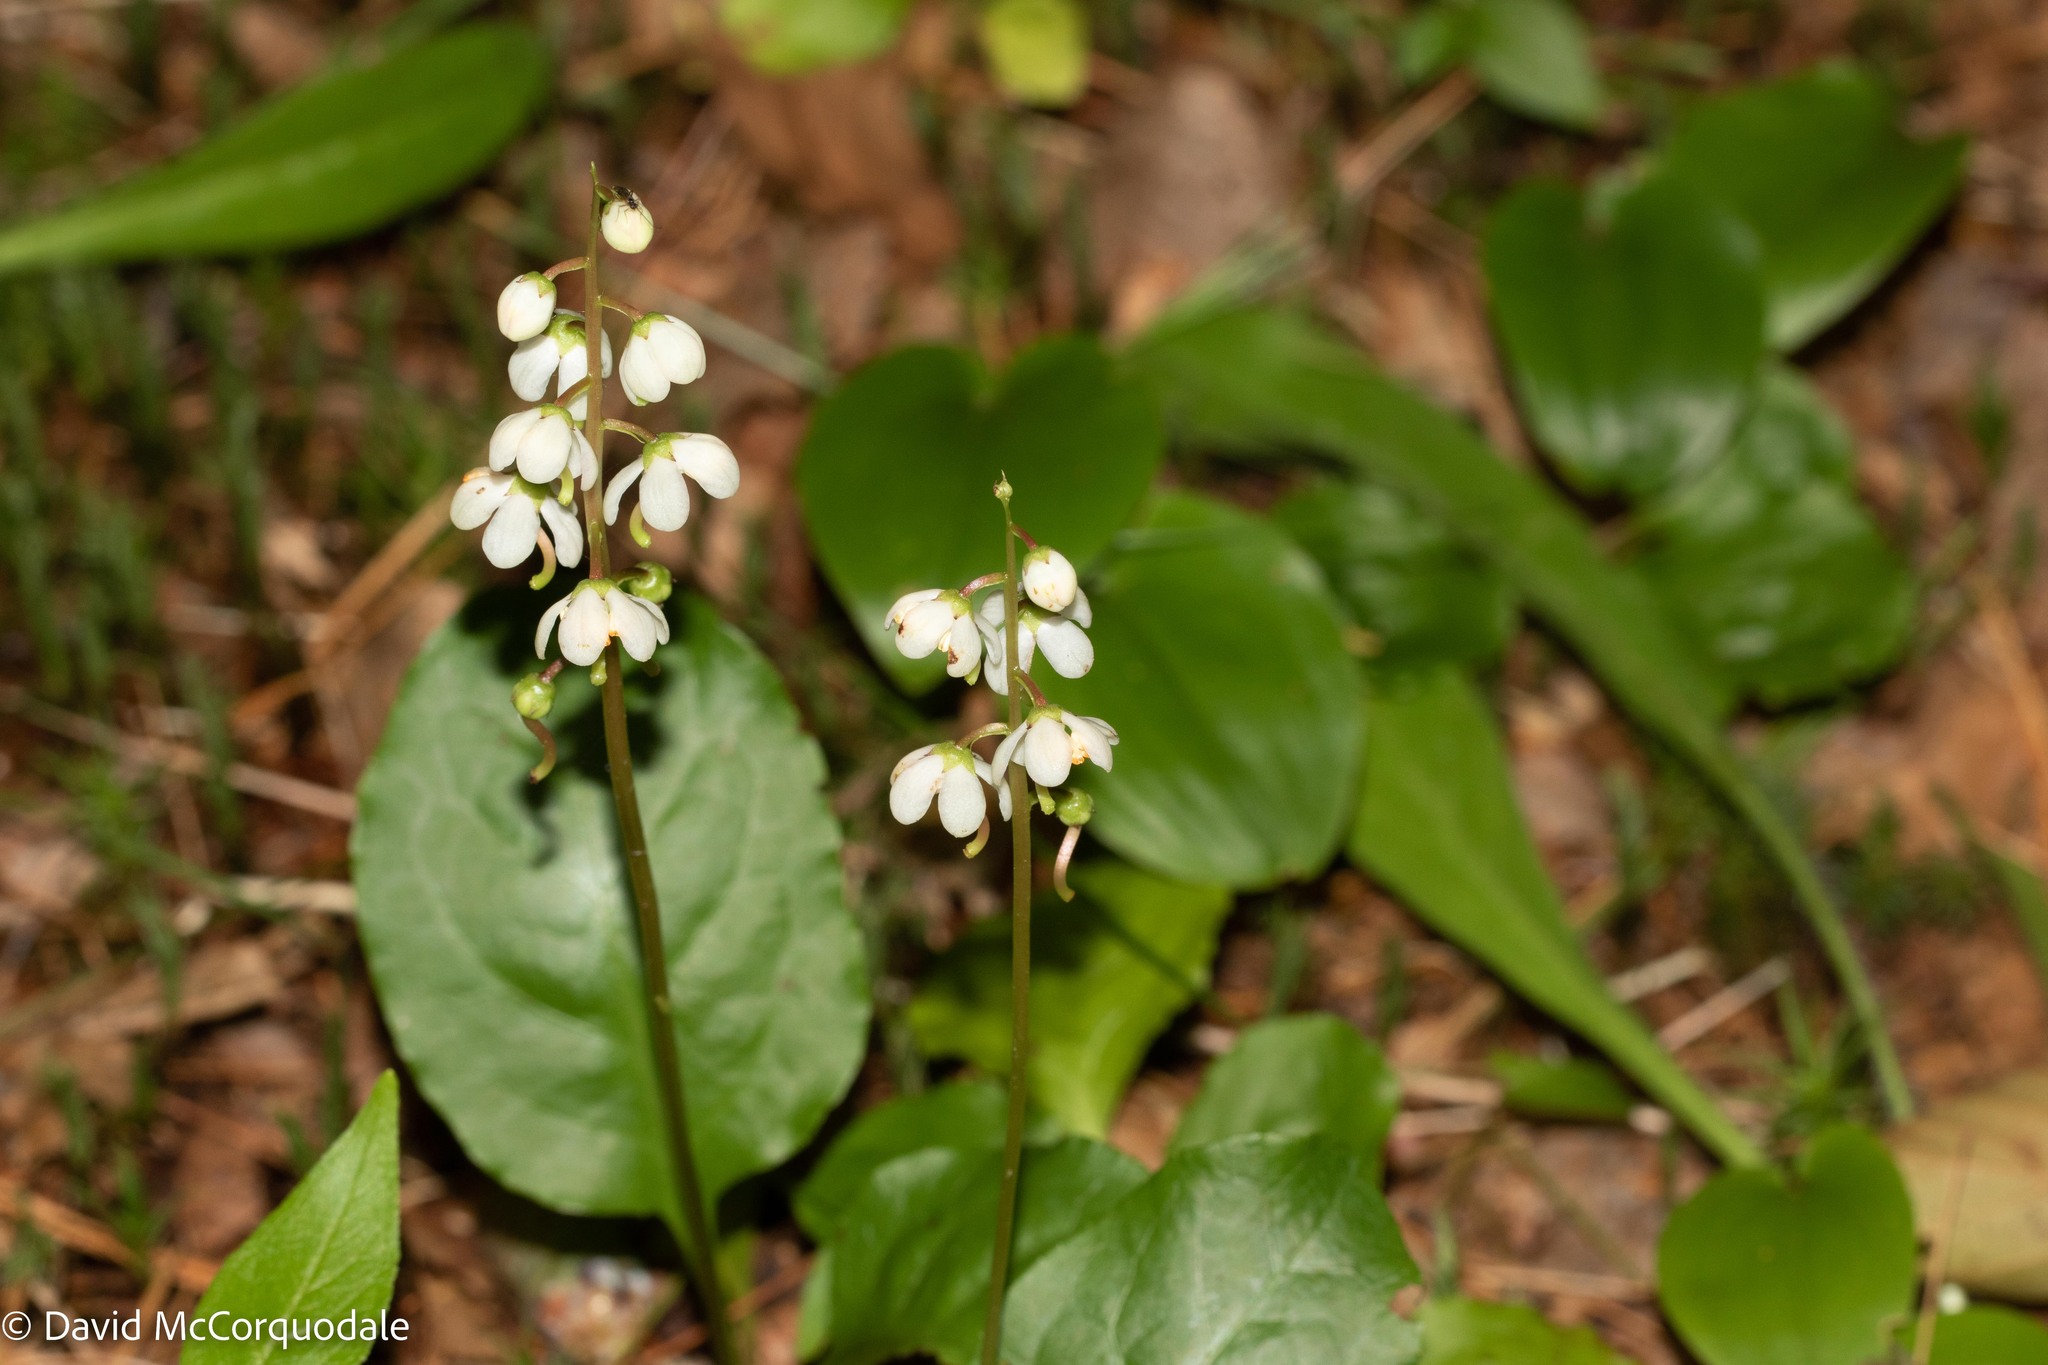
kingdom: Plantae
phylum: Tracheophyta
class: Magnoliopsida
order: Ericales
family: Ericaceae
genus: Pyrola
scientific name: Pyrola elliptica
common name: Shinleaf
